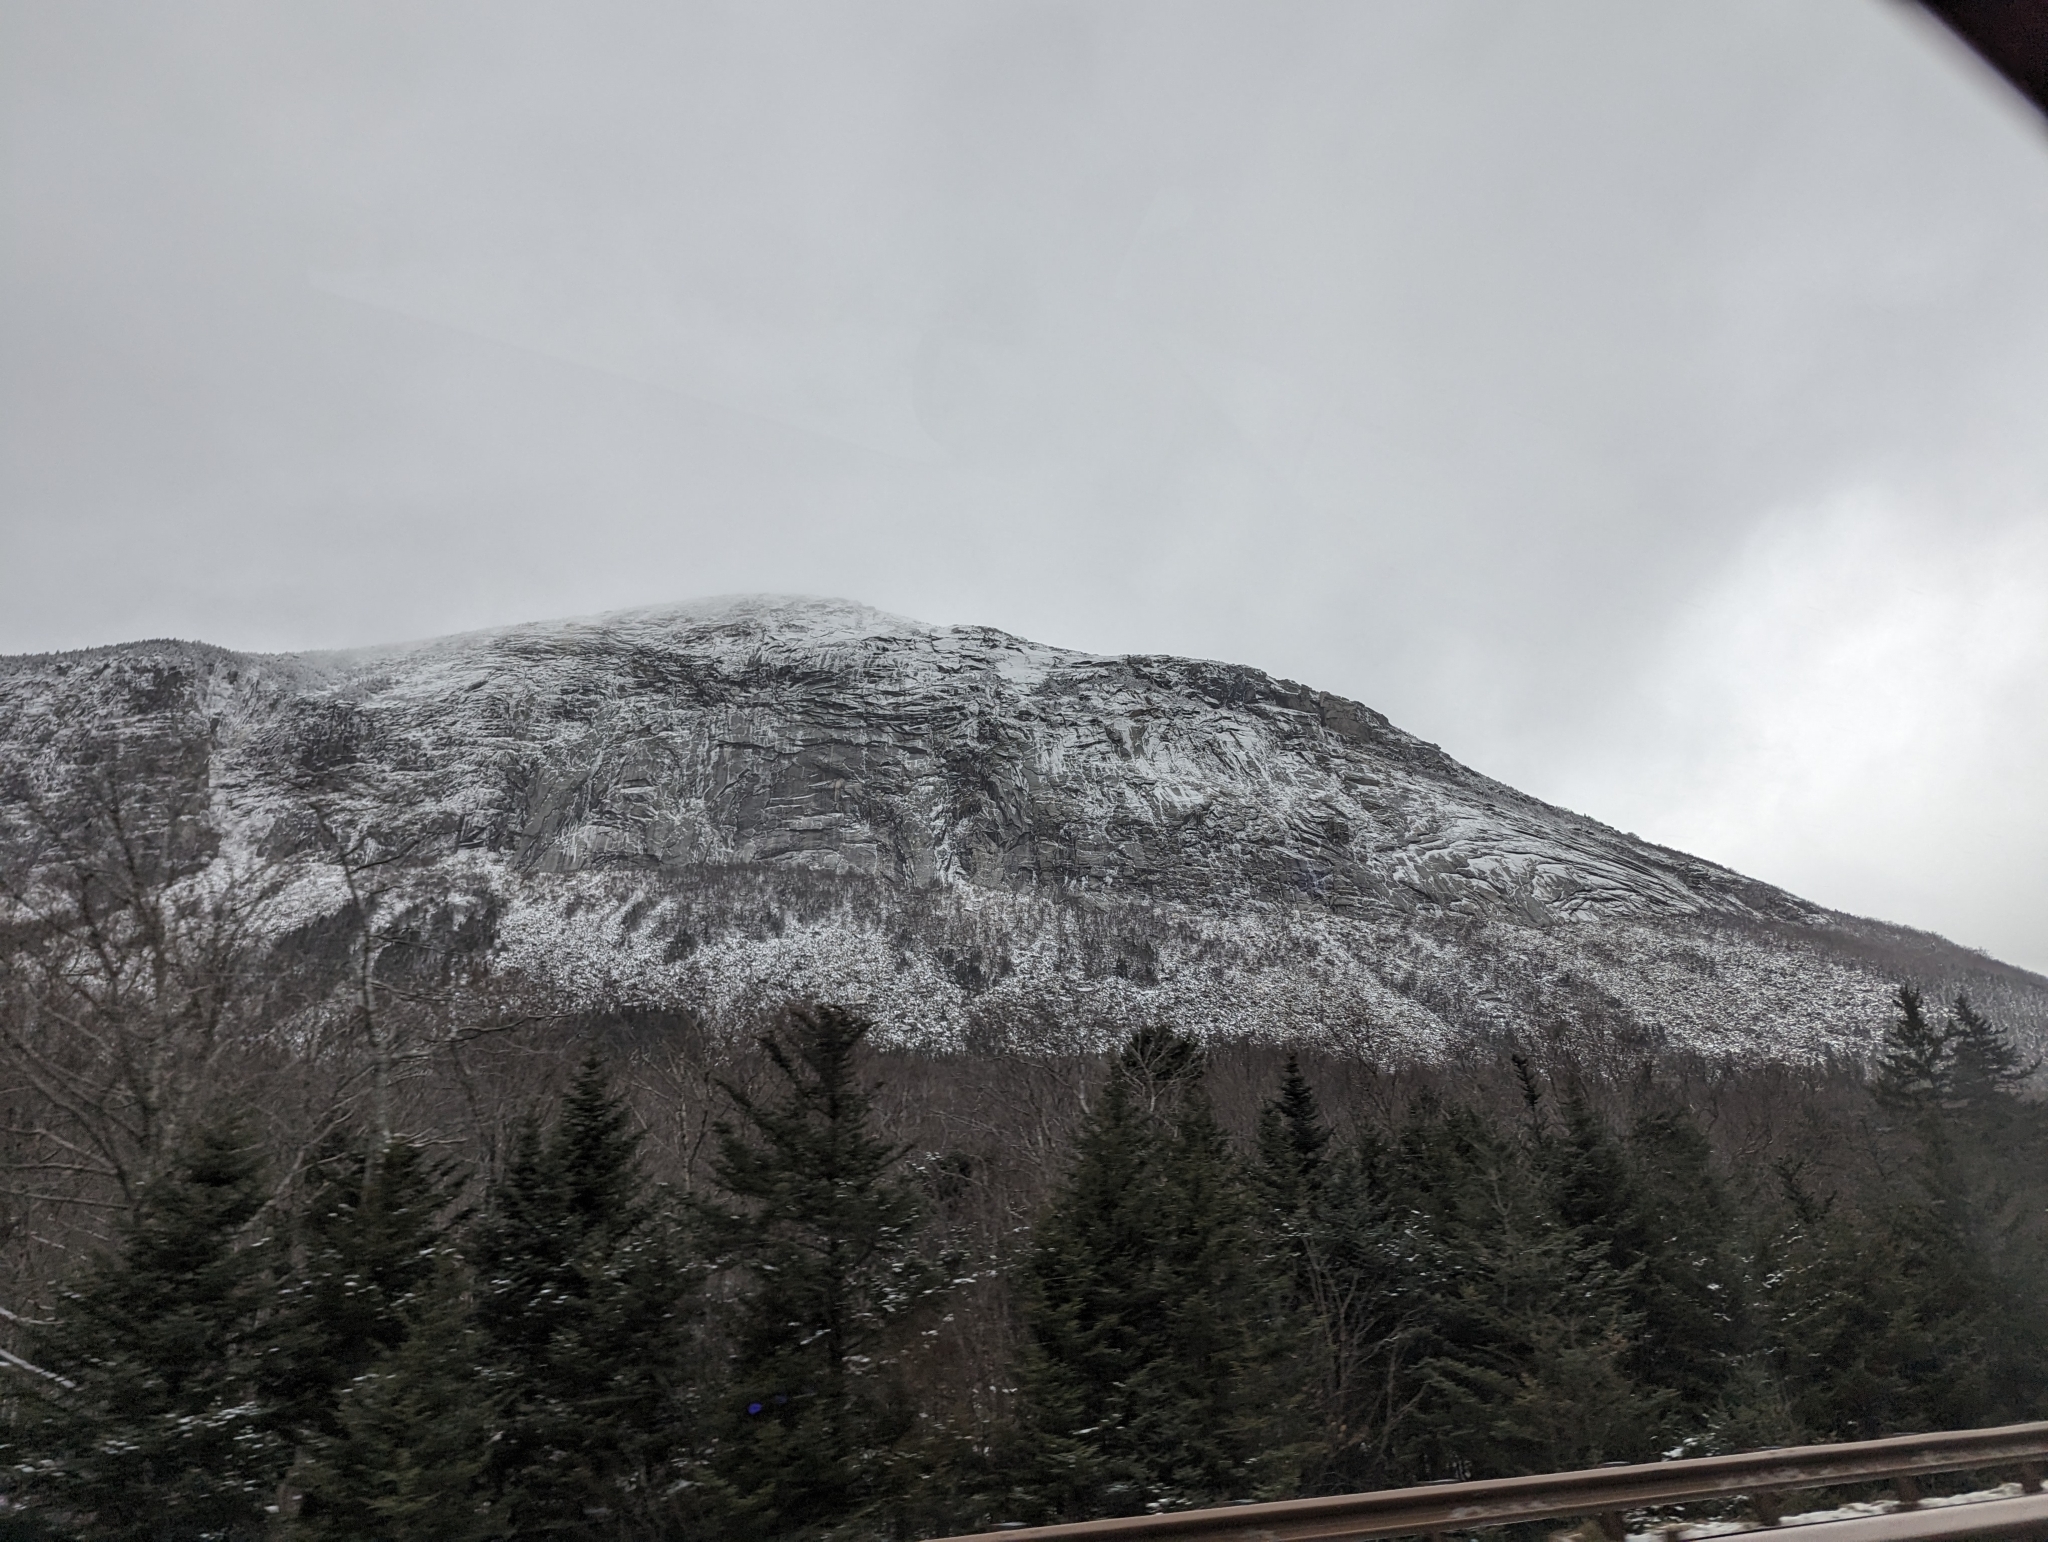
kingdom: Plantae
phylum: Tracheophyta
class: Pinopsida
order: Pinales
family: Pinaceae
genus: Pinus
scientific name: Pinus strobus
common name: Weymouth pine
